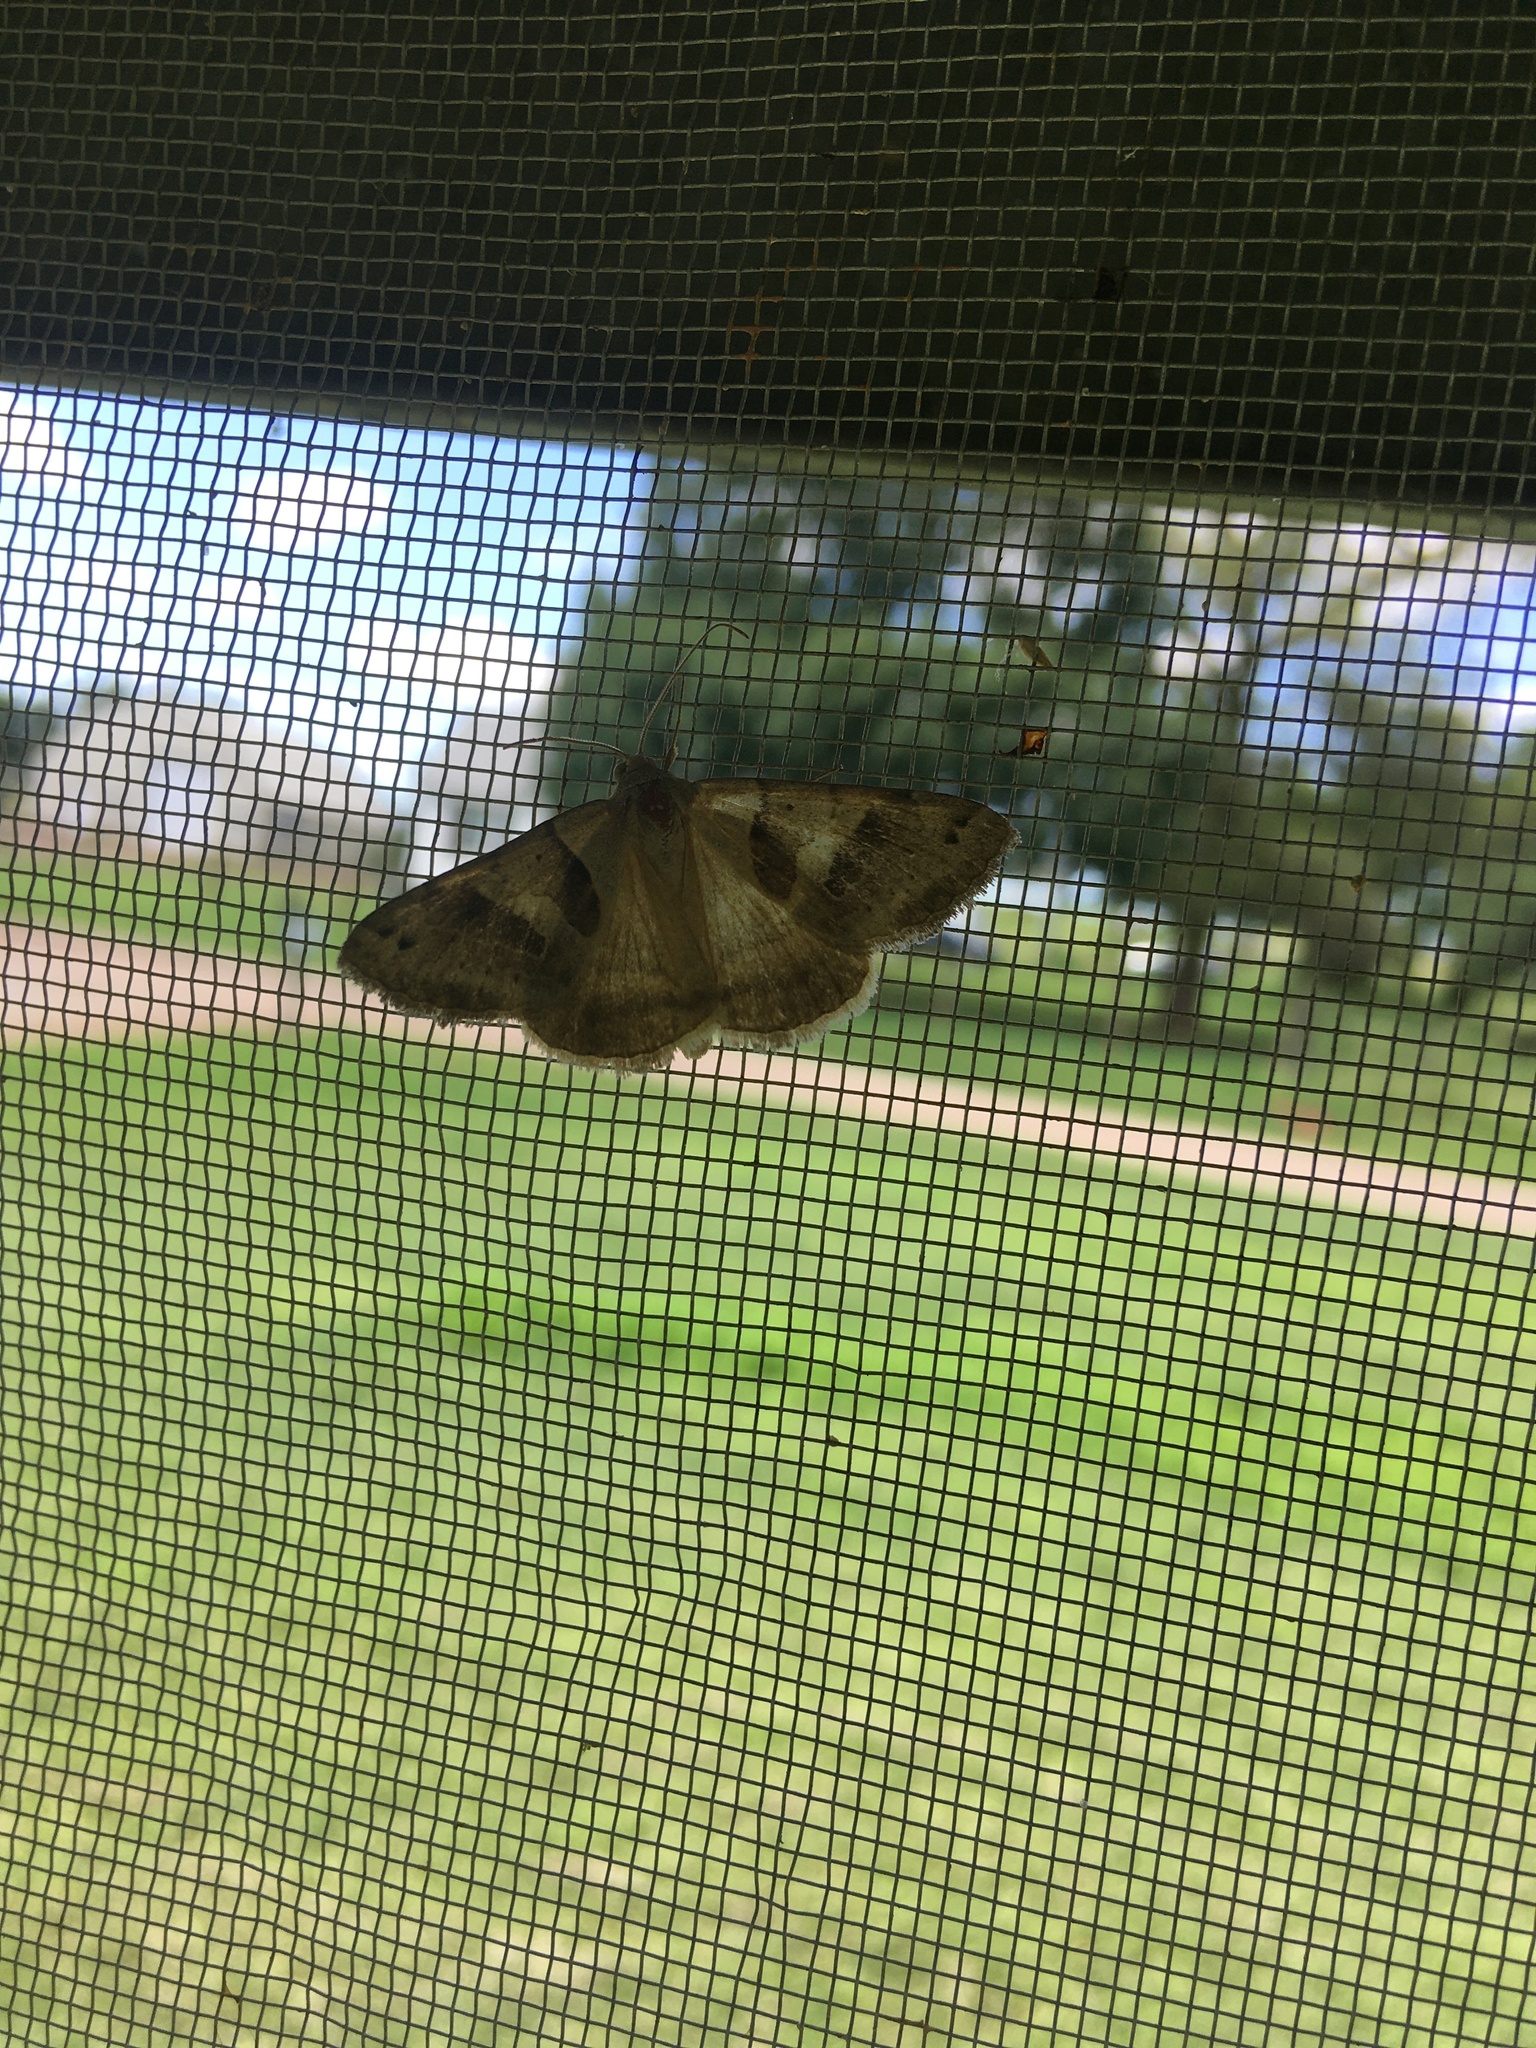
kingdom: Animalia
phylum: Arthropoda
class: Insecta
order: Lepidoptera
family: Erebidae
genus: Caenurgina
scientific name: Caenurgina erechtea
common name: Forage looper moth
